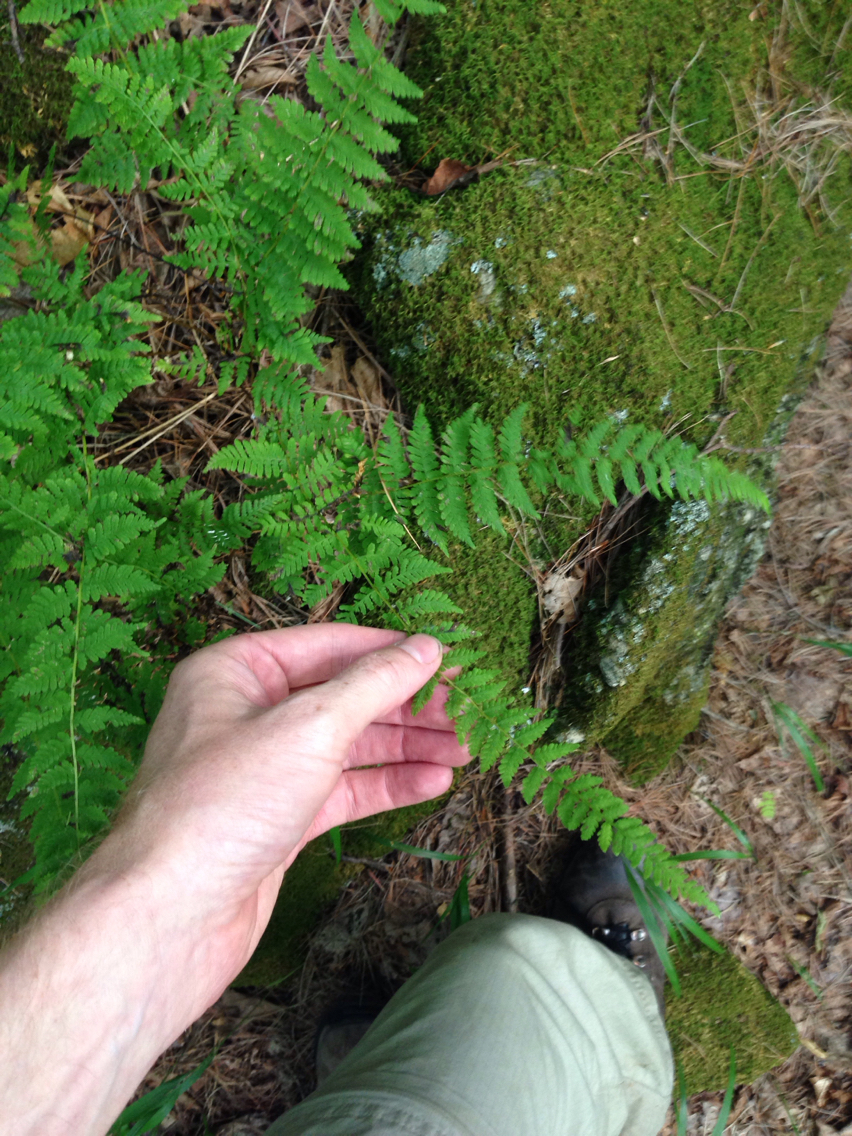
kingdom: Plantae
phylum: Tracheophyta
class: Polypodiopsida
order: Polypodiales
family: Cystopteridaceae
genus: Cystopteris
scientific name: Cystopteris bulbifera
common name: Bulblet bladder fern
